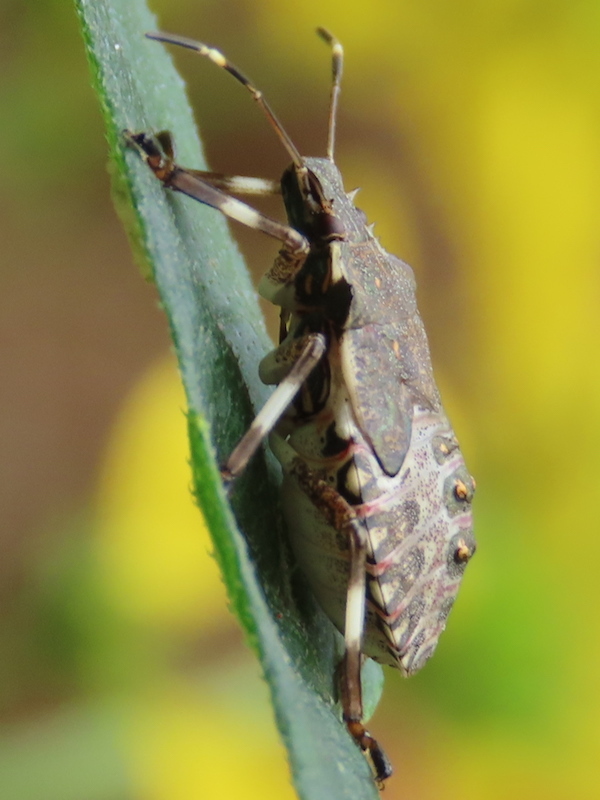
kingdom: Animalia
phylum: Arthropoda
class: Insecta
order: Hemiptera
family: Pentatomidae
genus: Halyomorpha
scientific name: Halyomorpha halys
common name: Brown marmorated stink bug
